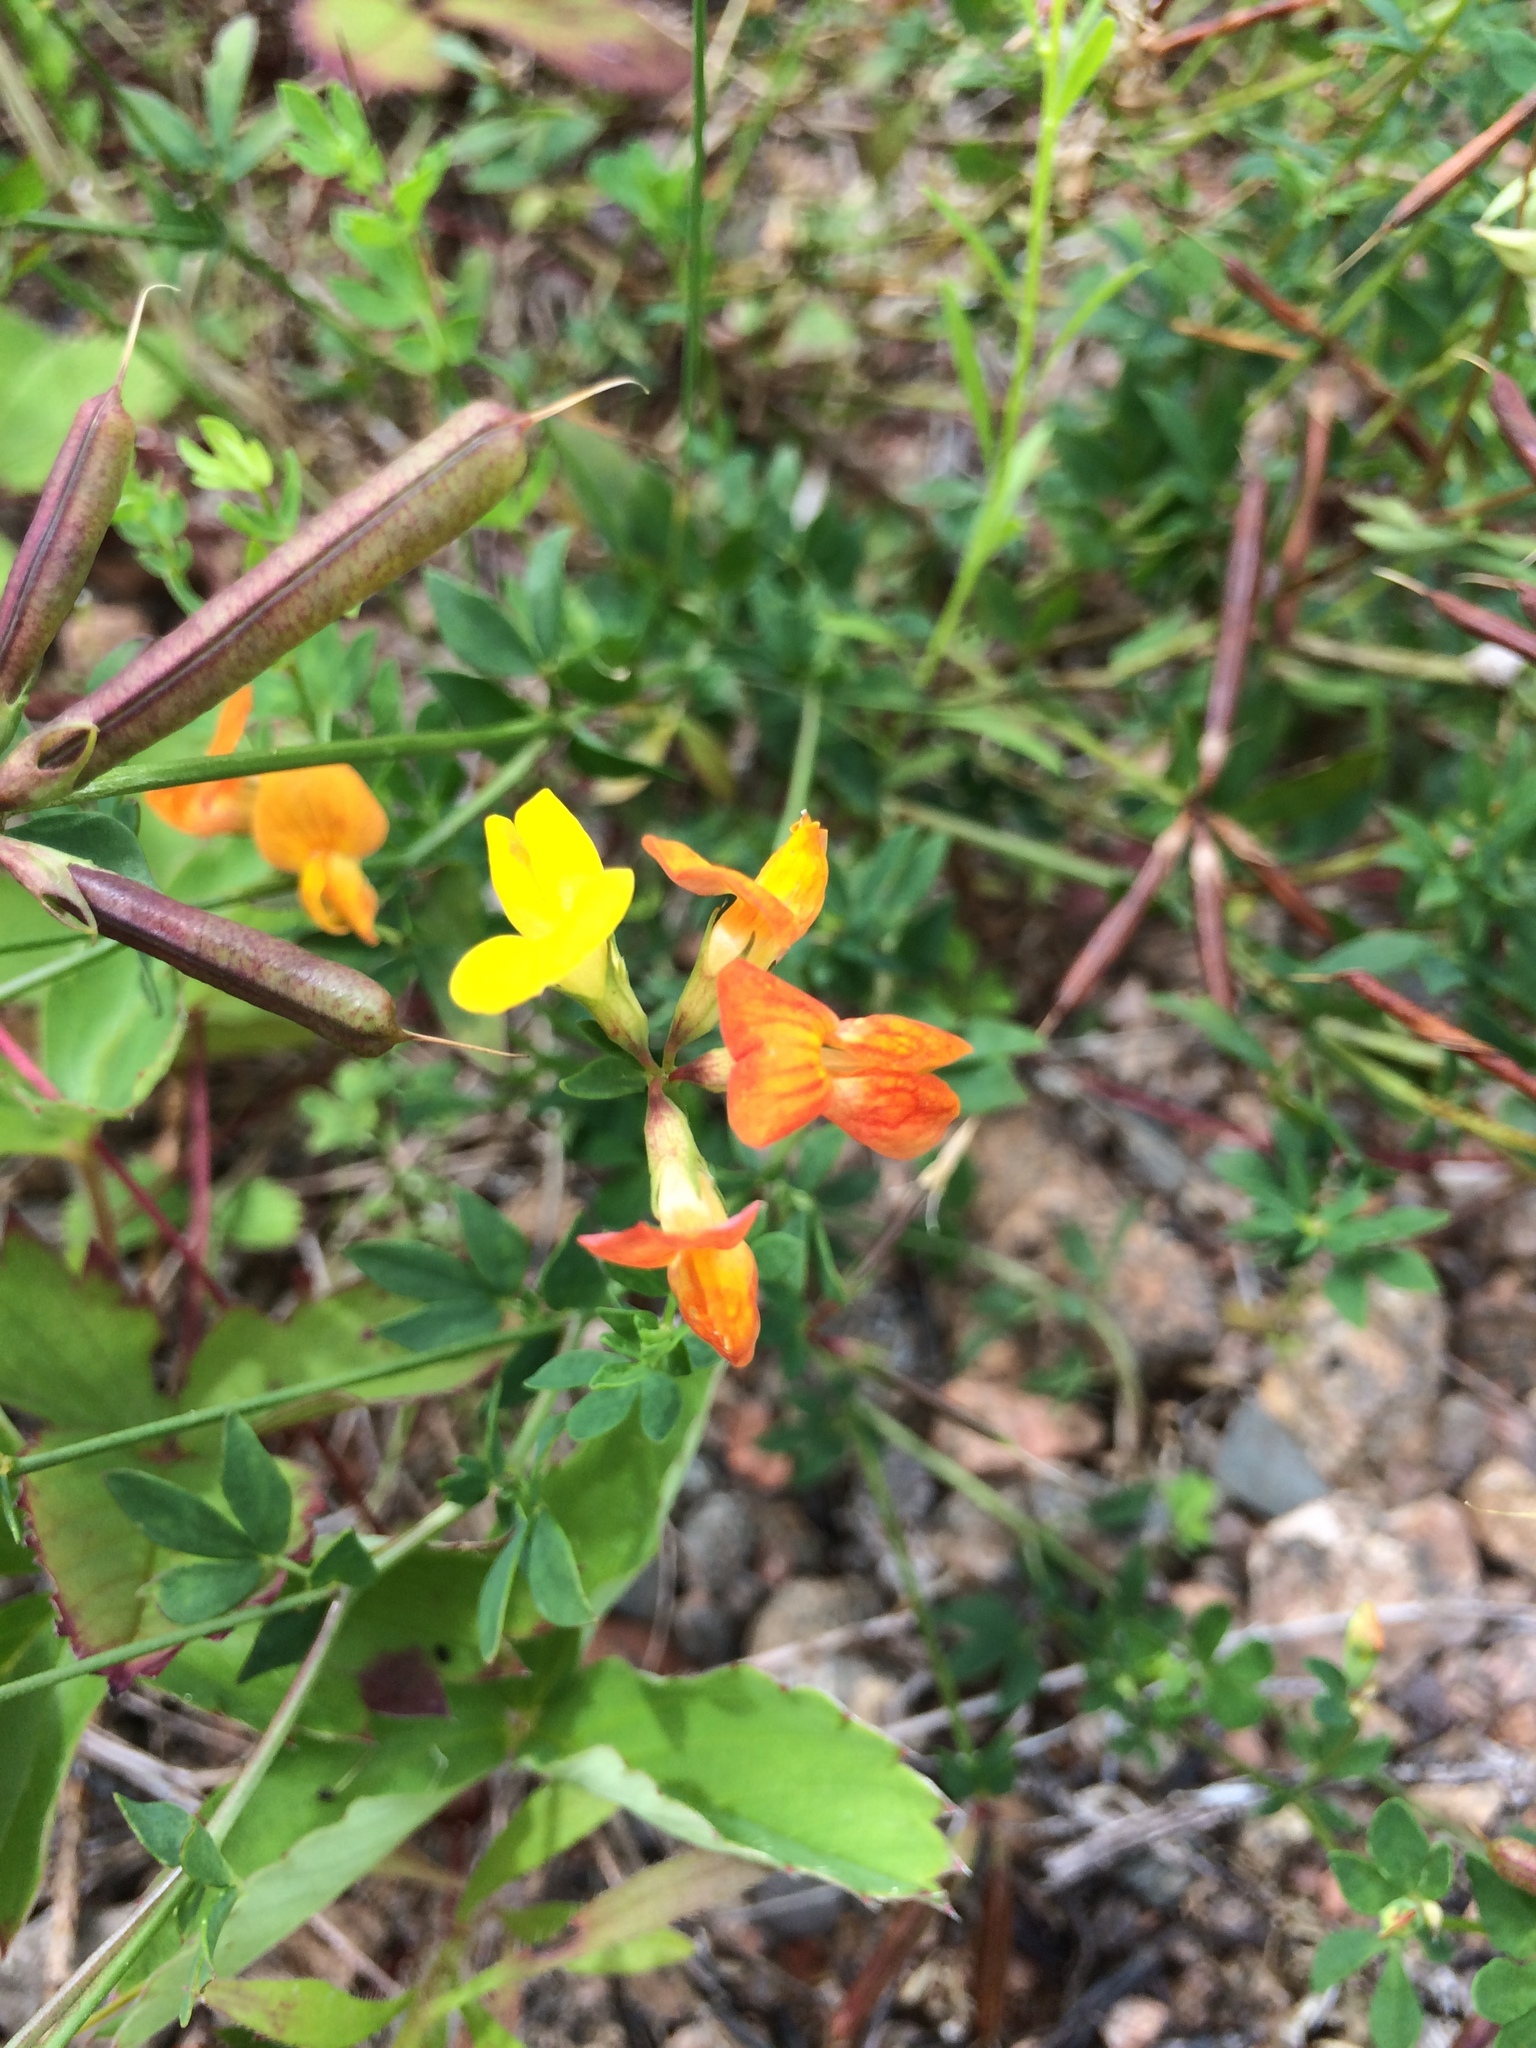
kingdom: Plantae
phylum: Tracheophyta
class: Magnoliopsida
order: Fabales
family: Fabaceae
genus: Lotus
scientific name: Lotus corniculatus
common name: Common bird's-foot-trefoil
